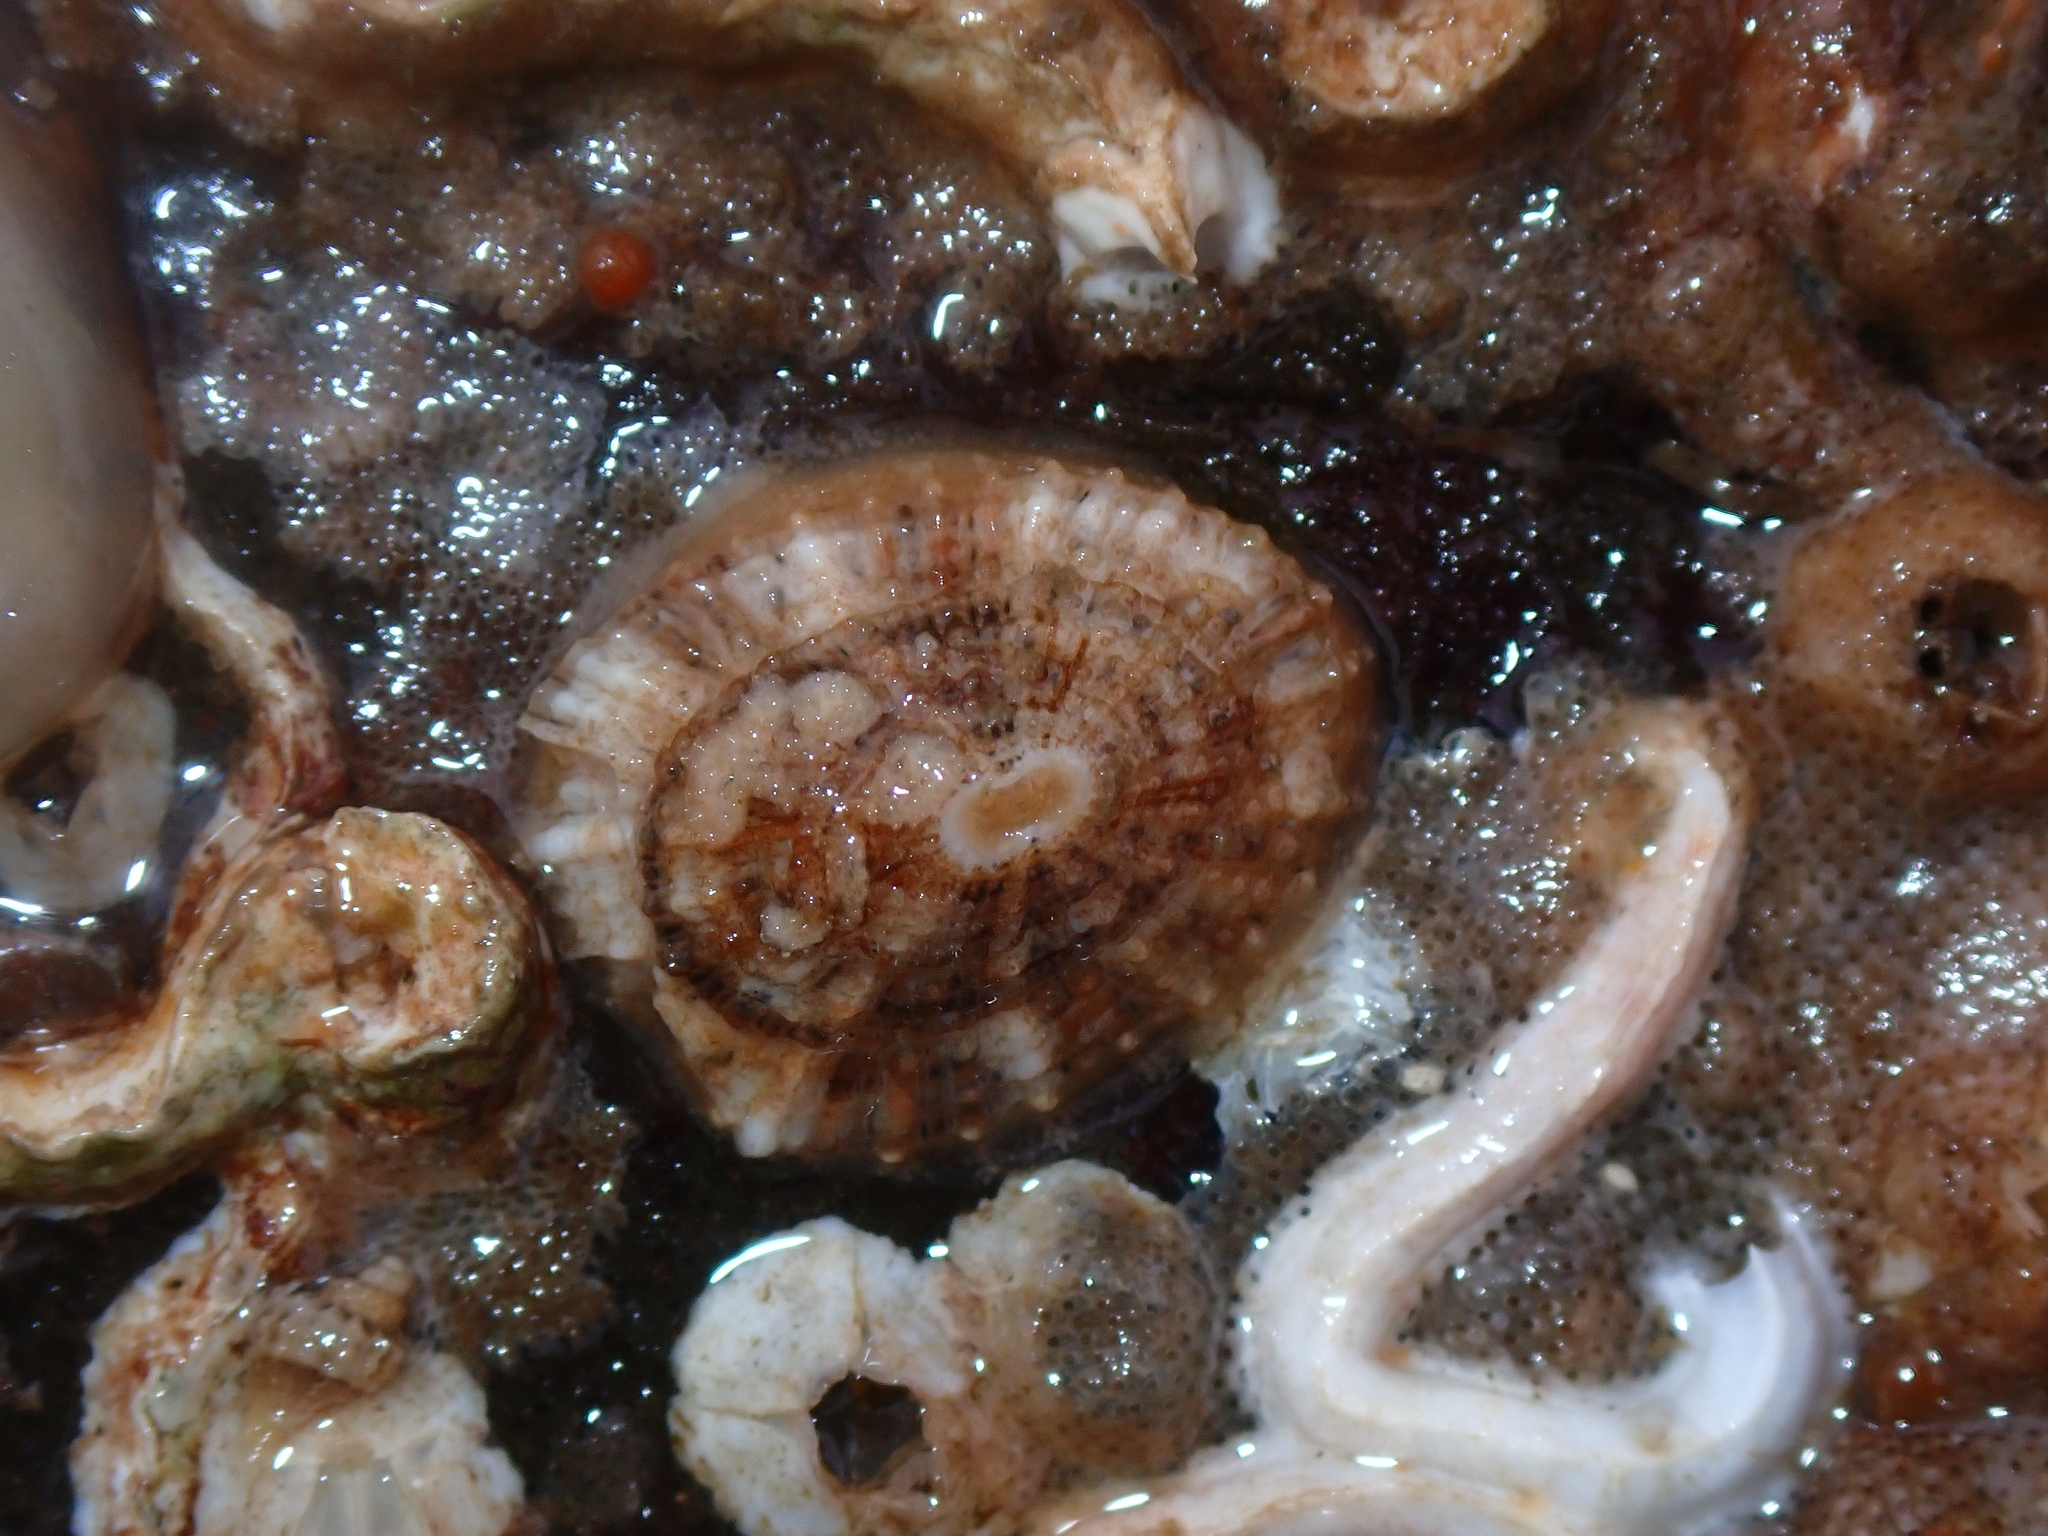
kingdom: Animalia
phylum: Mollusca
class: Gastropoda
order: Lepetellida
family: Fissurellidae
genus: Diodora
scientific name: Diodora graeca
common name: Common keyhole limpet
